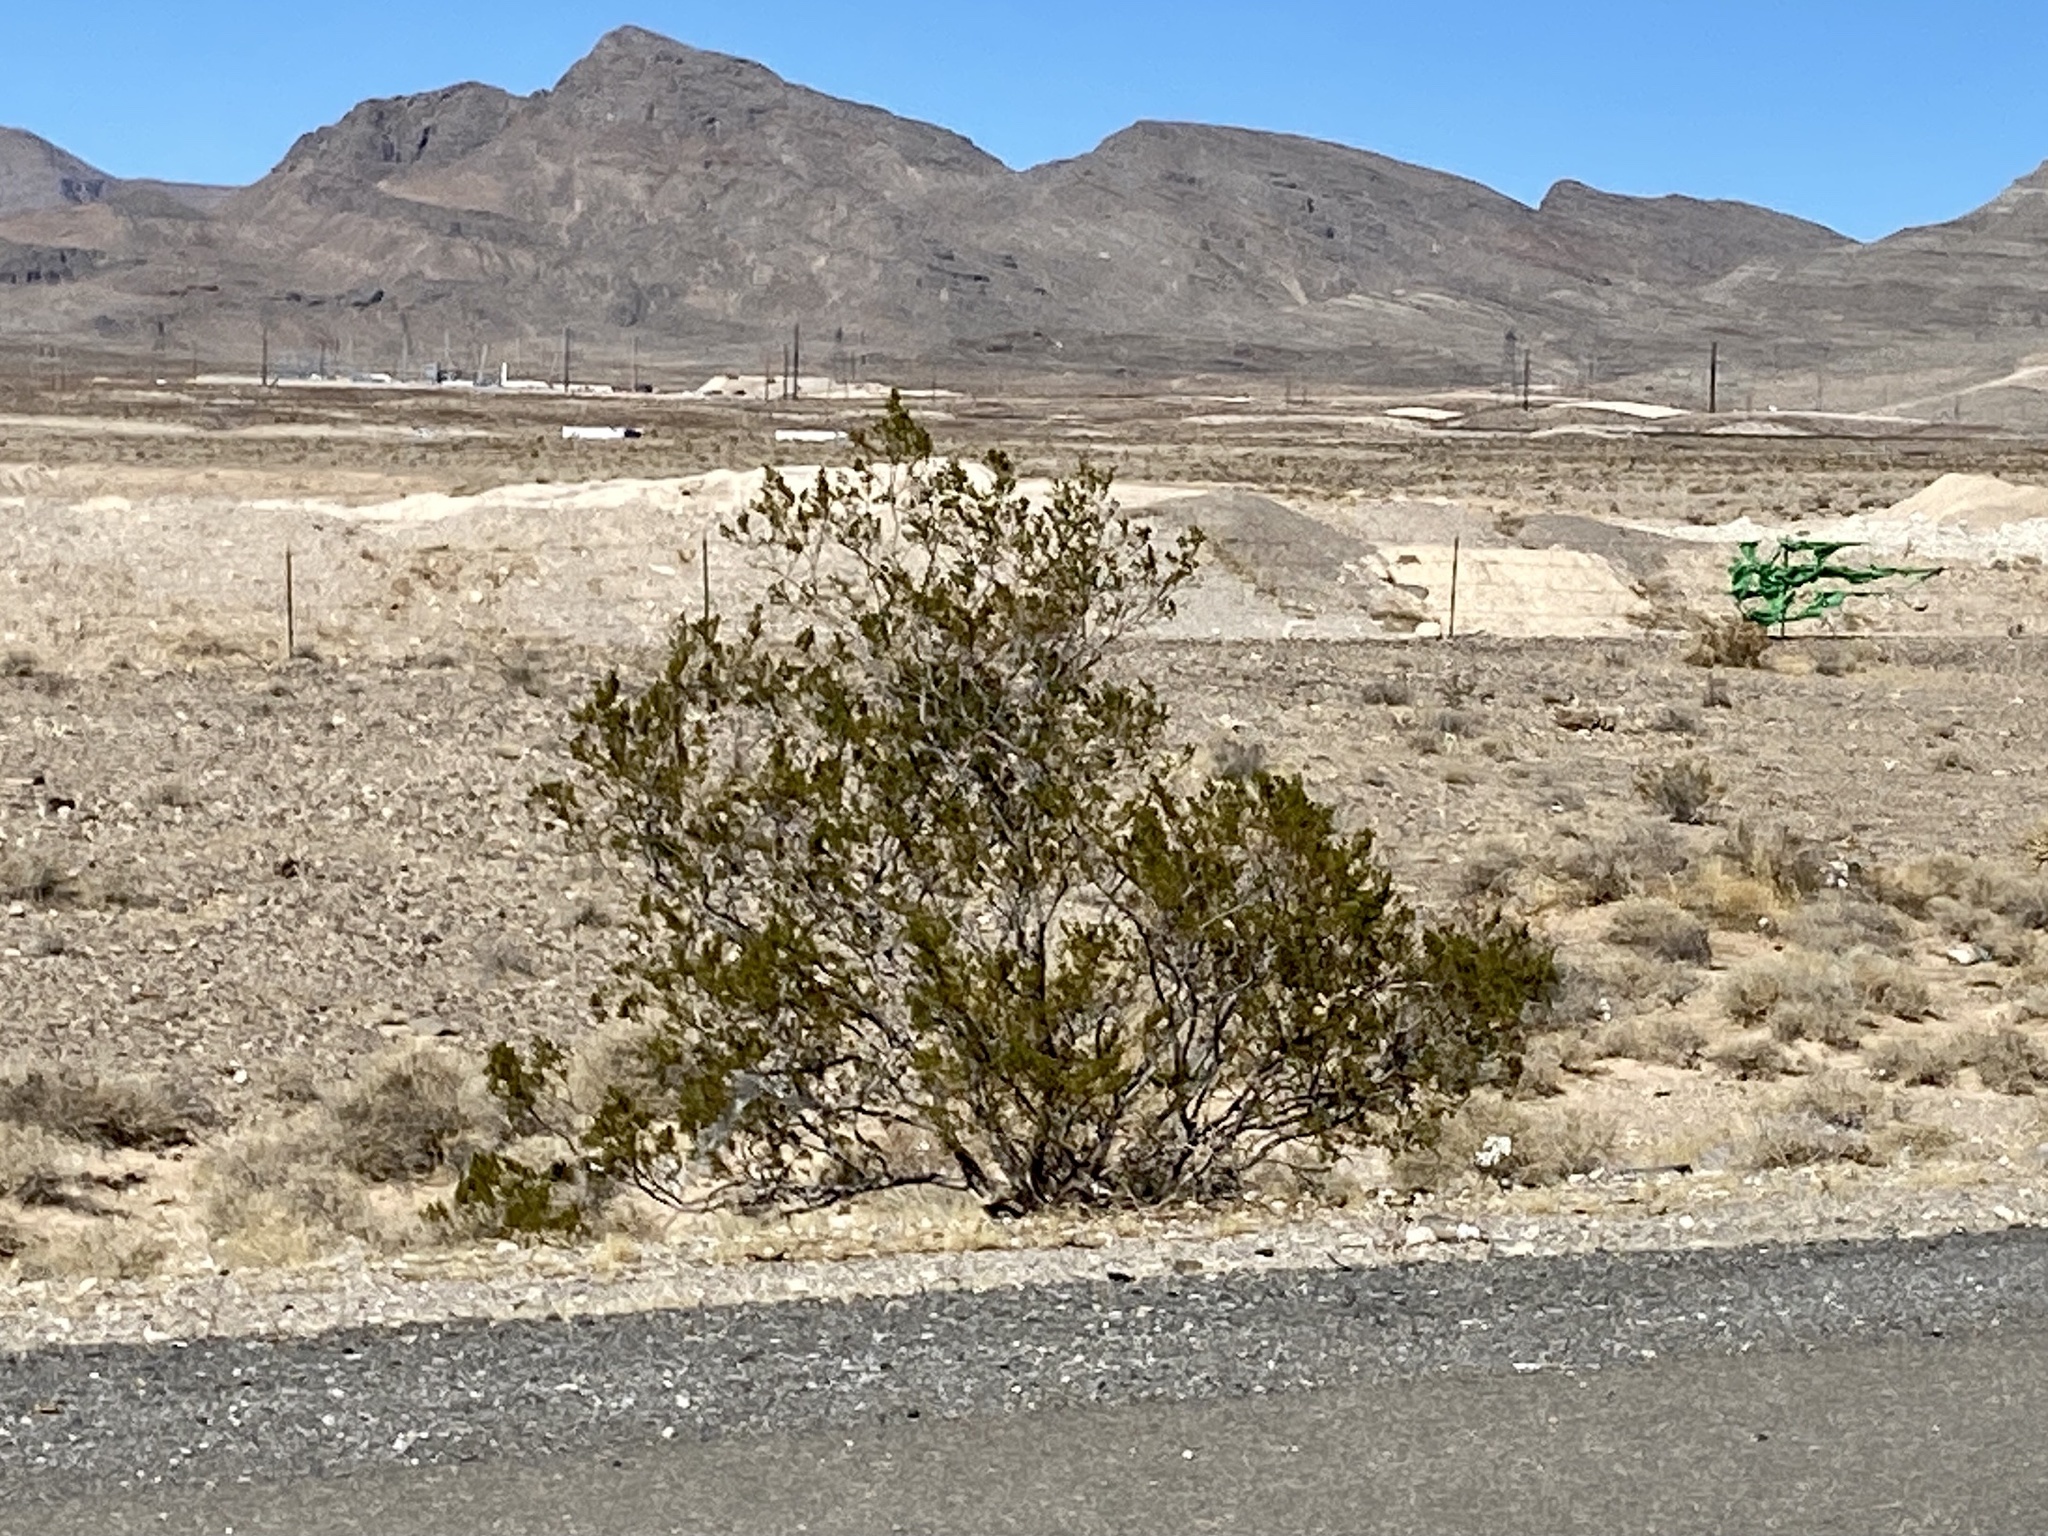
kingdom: Plantae
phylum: Tracheophyta
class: Magnoliopsida
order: Zygophyllales
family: Zygophyllaceae
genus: Larrea
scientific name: Larrea tridentata
